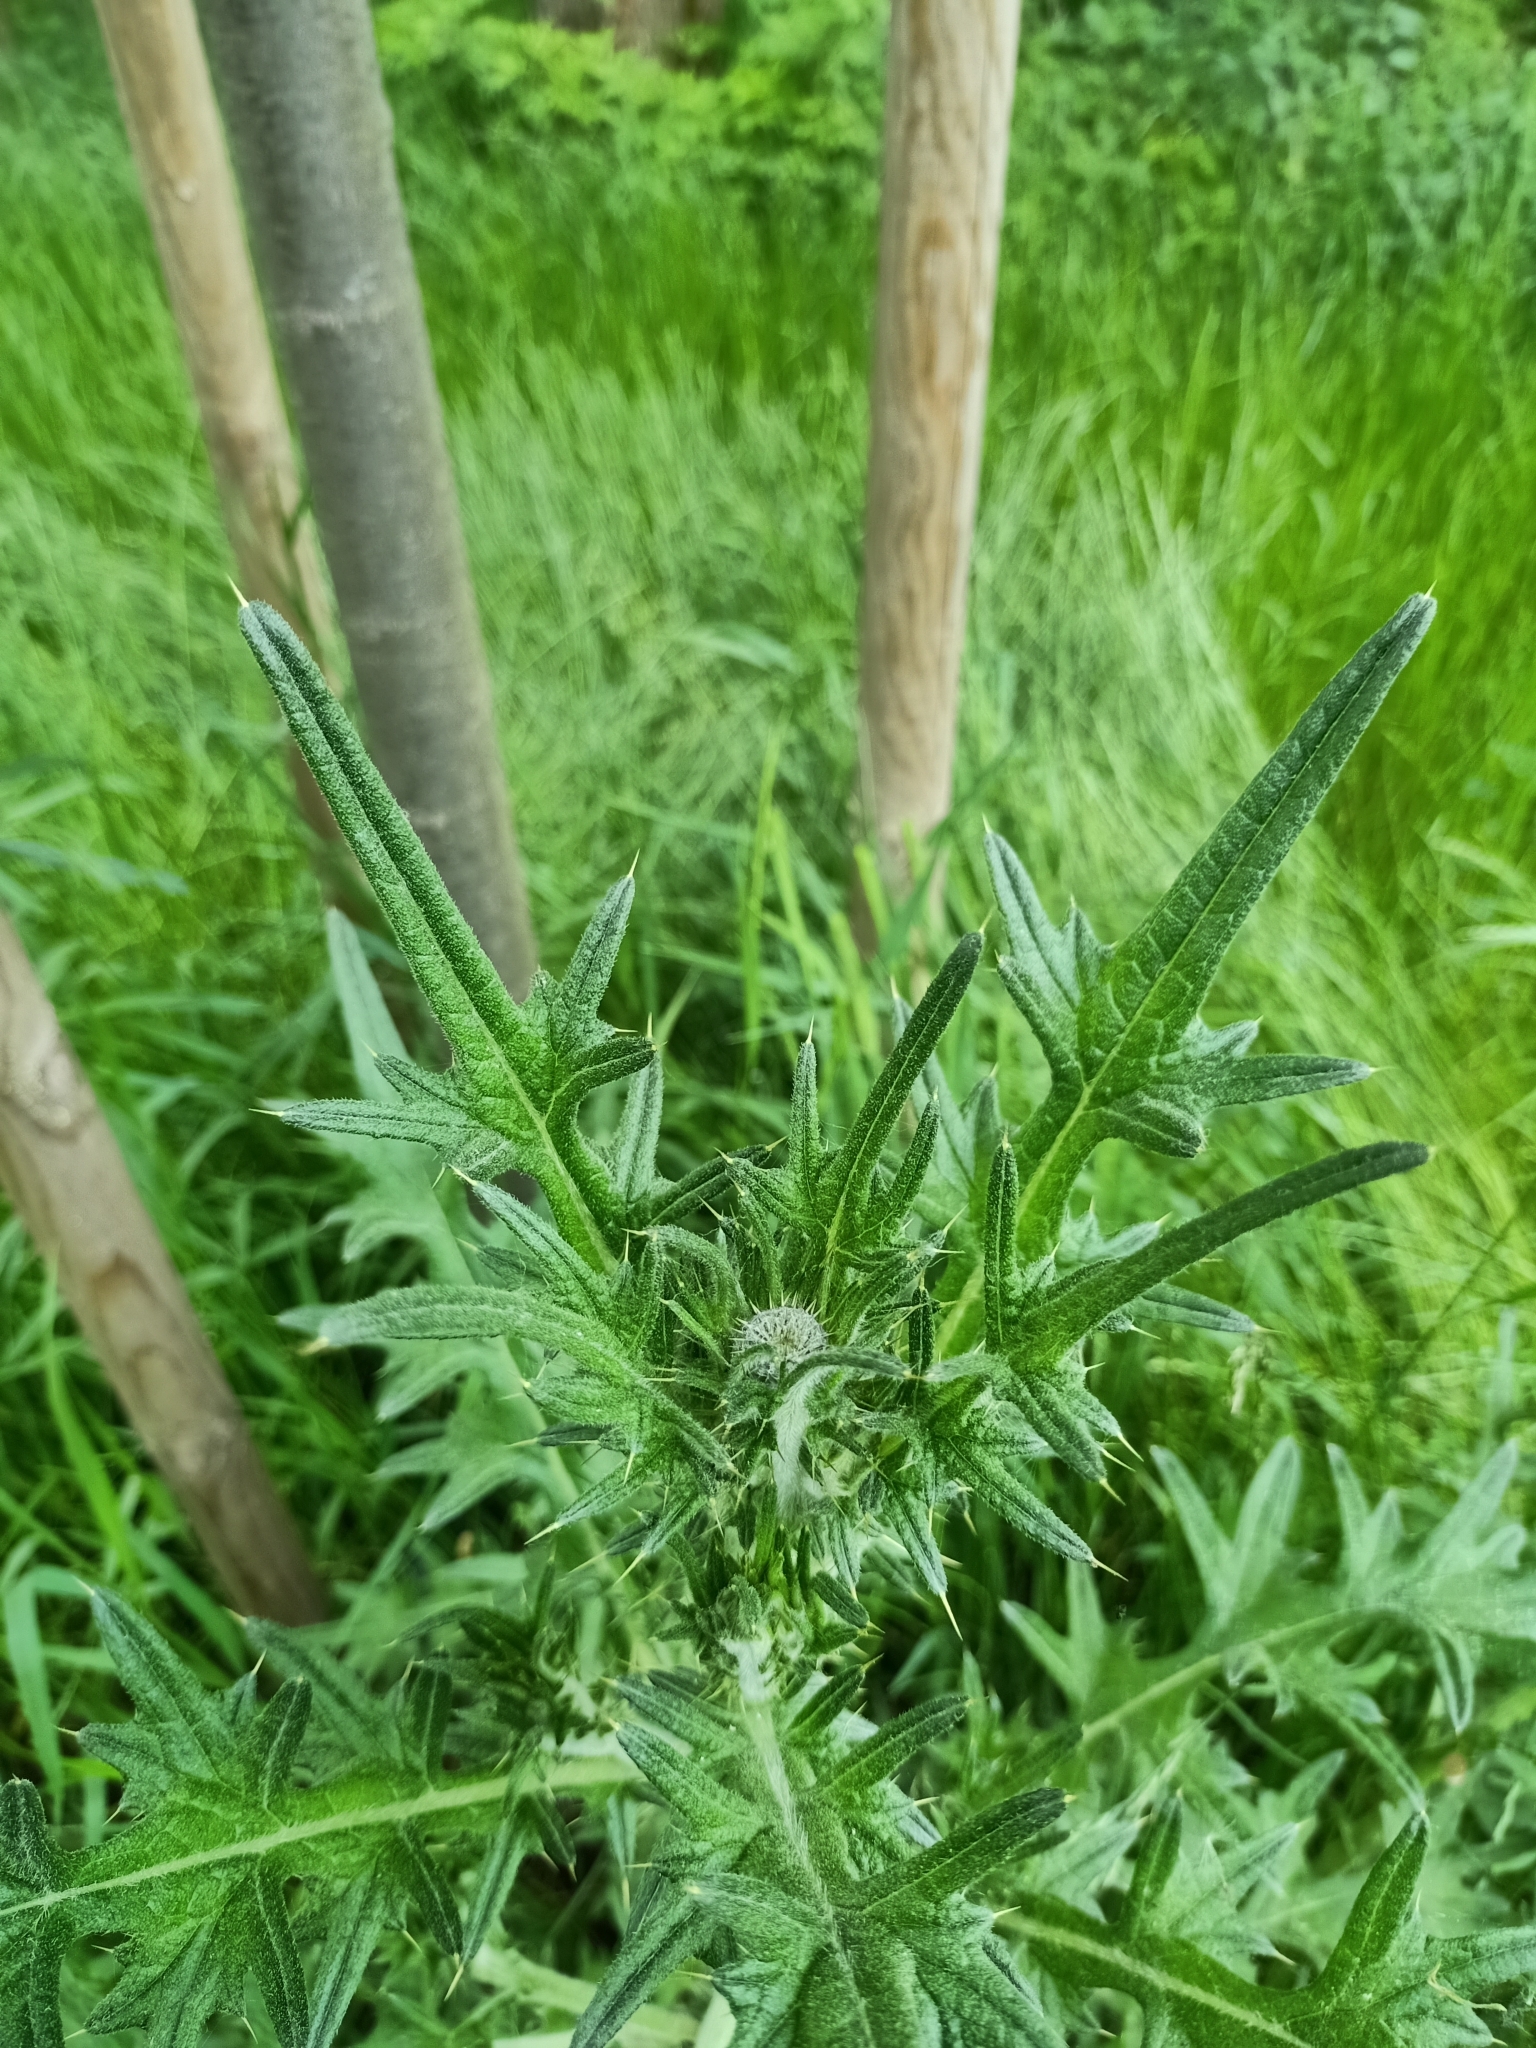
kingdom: Plantae
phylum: Tracheophyta
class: Magnoliopsida
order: Asterales
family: Asteraceae
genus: Cirsium
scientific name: Cirsium vulgare
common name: Bull thistle
